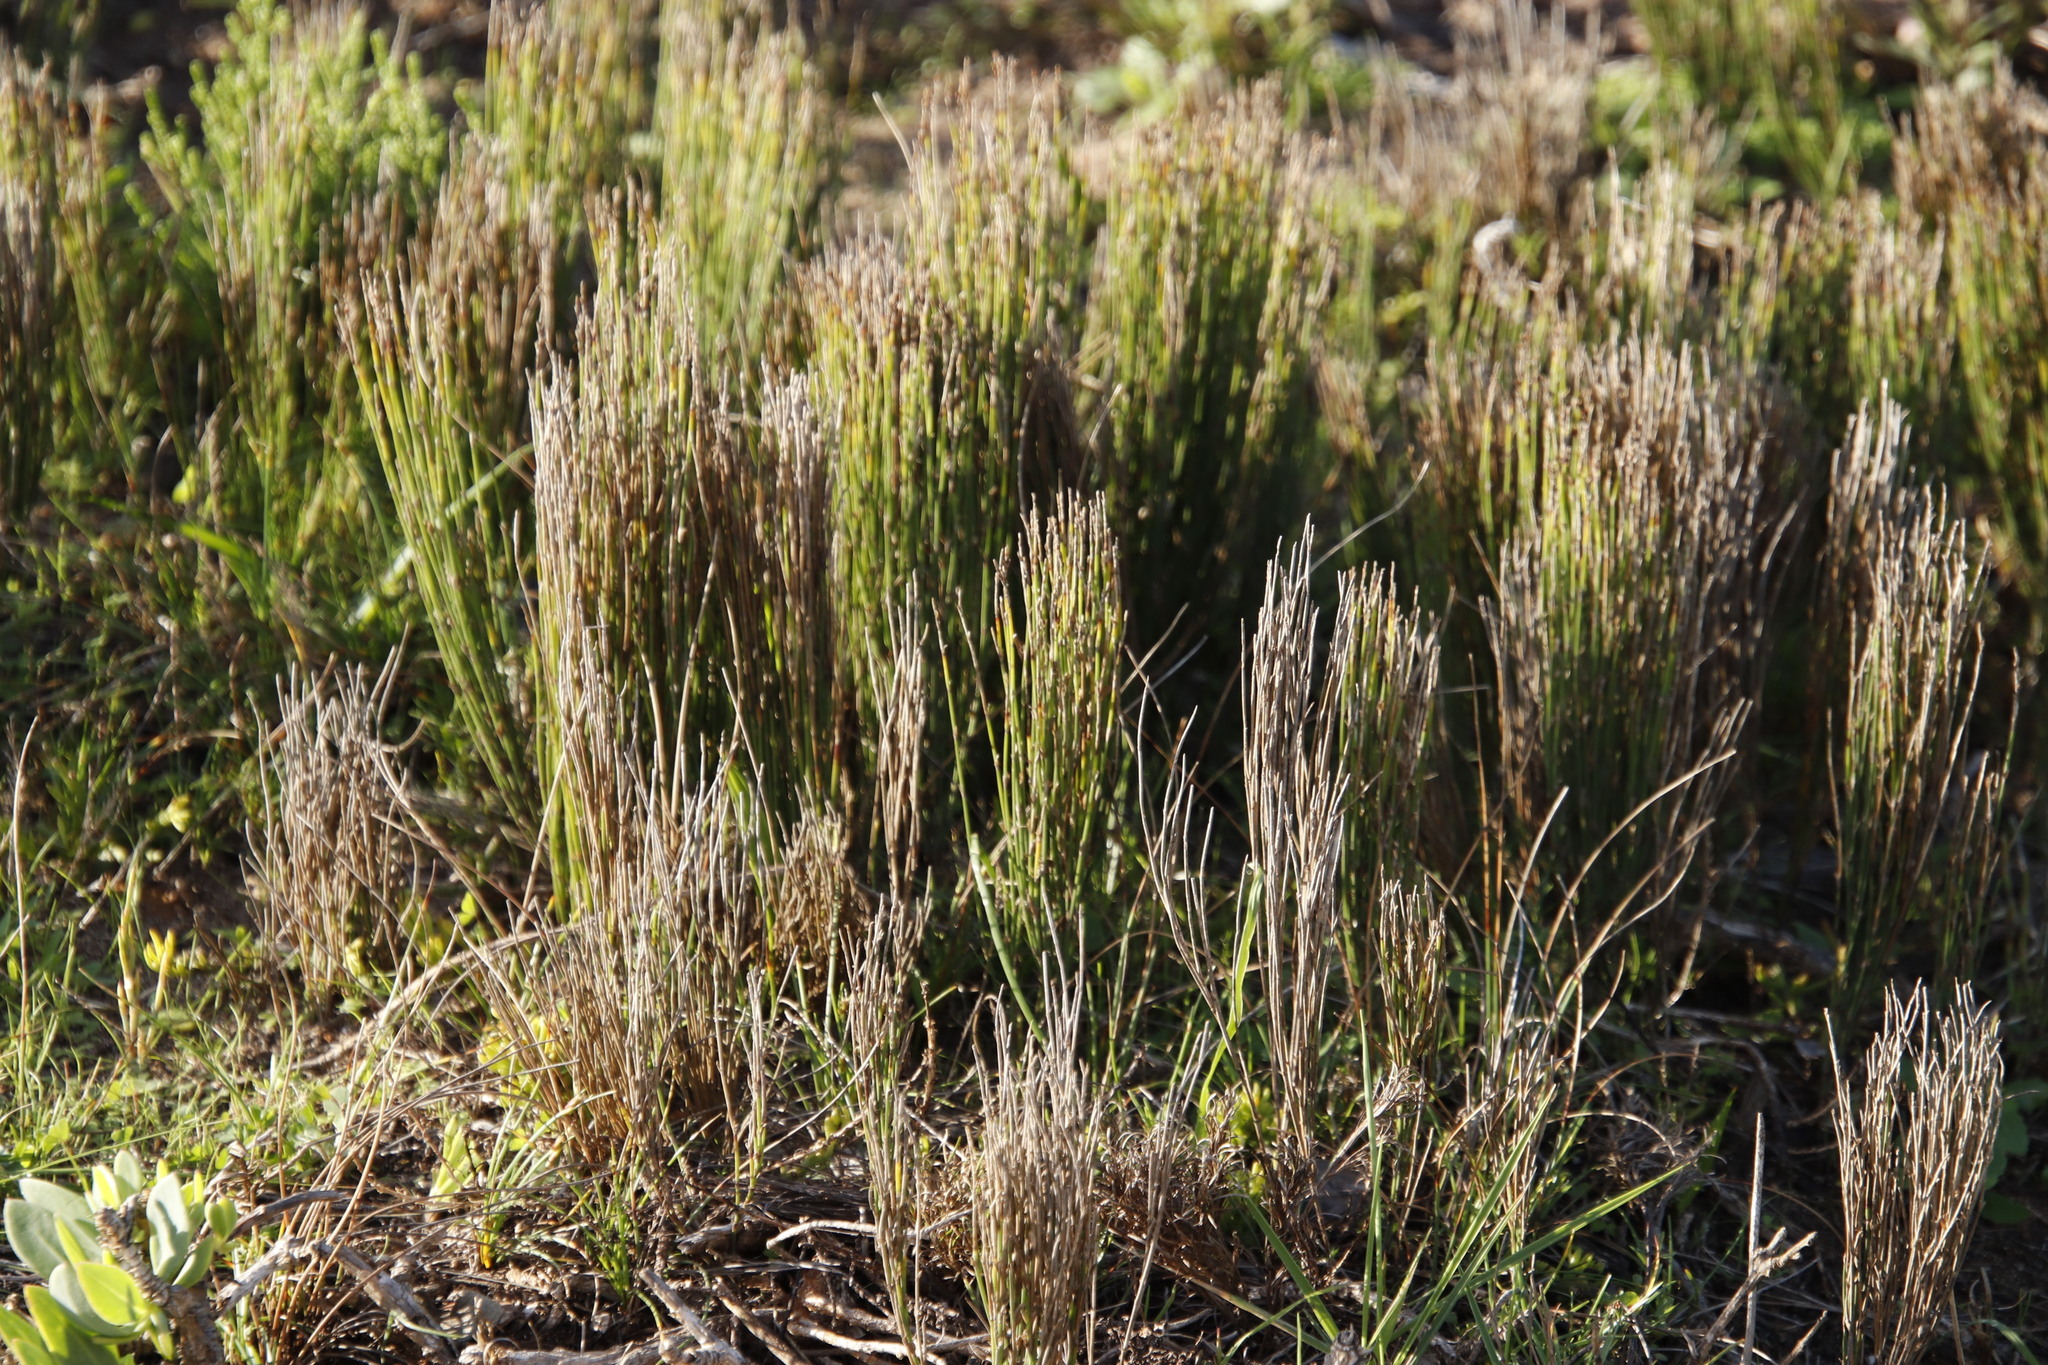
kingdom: Plantae
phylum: Tracheophyta
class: Liliopsida
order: Poales
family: Restionaceae
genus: Elegia
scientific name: Elegia microcarpa
